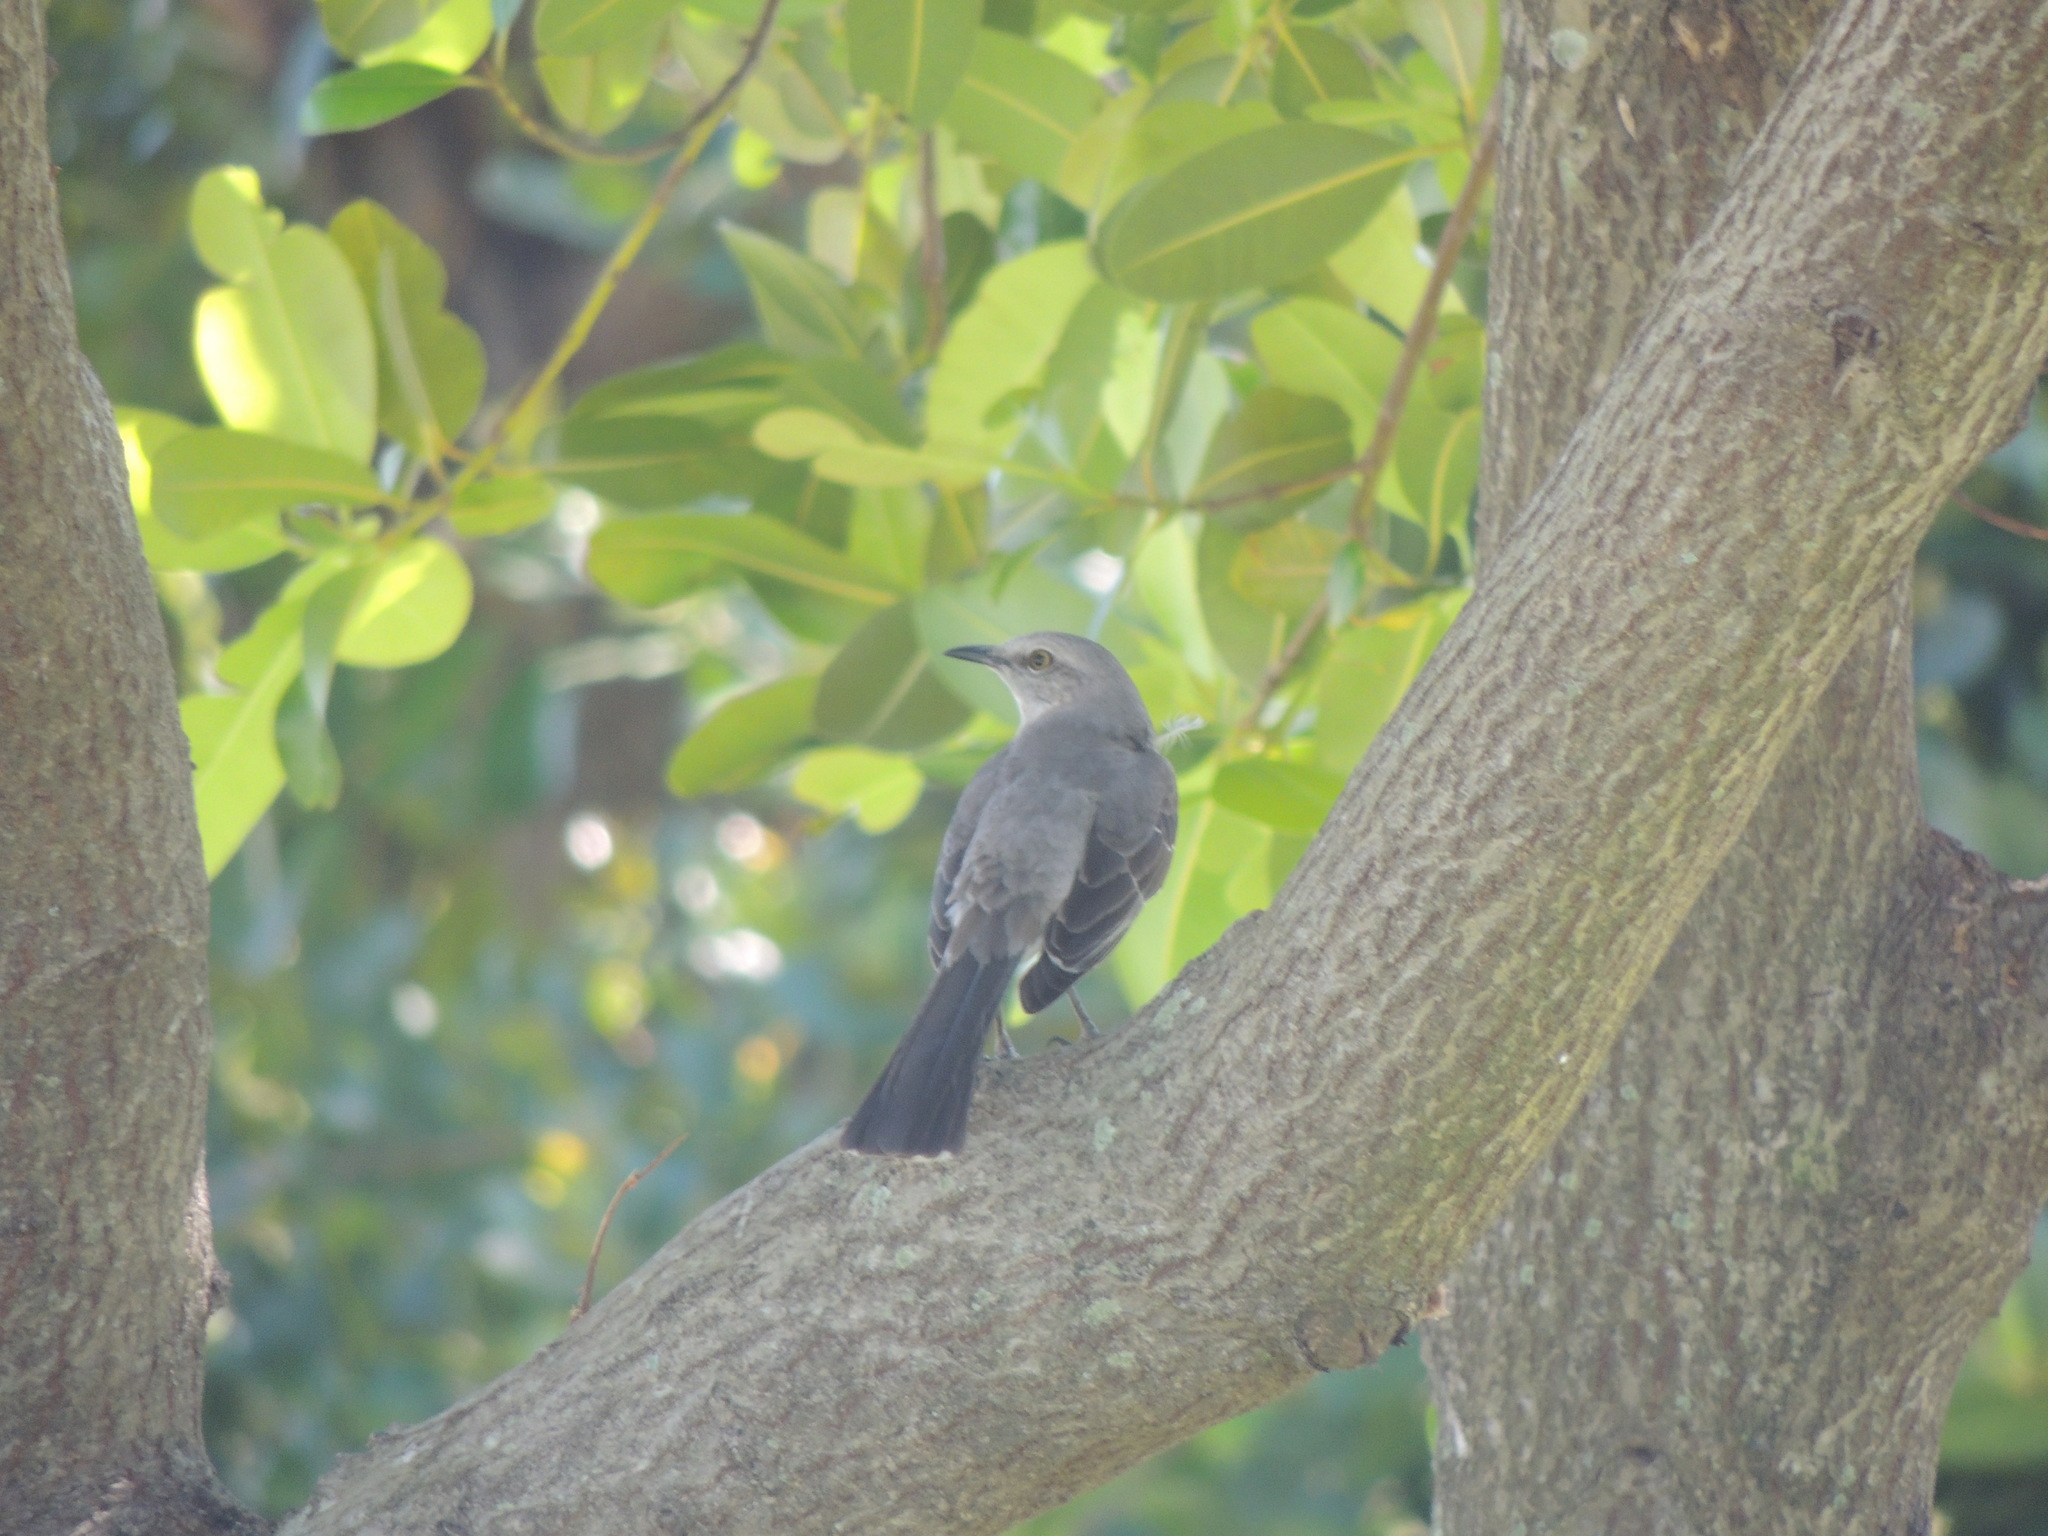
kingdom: Animalia
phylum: Chordata
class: Aves
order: Passeriformes
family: Mimidae
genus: Mimus
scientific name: Mimus polyglottos
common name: Northern mockingbird
